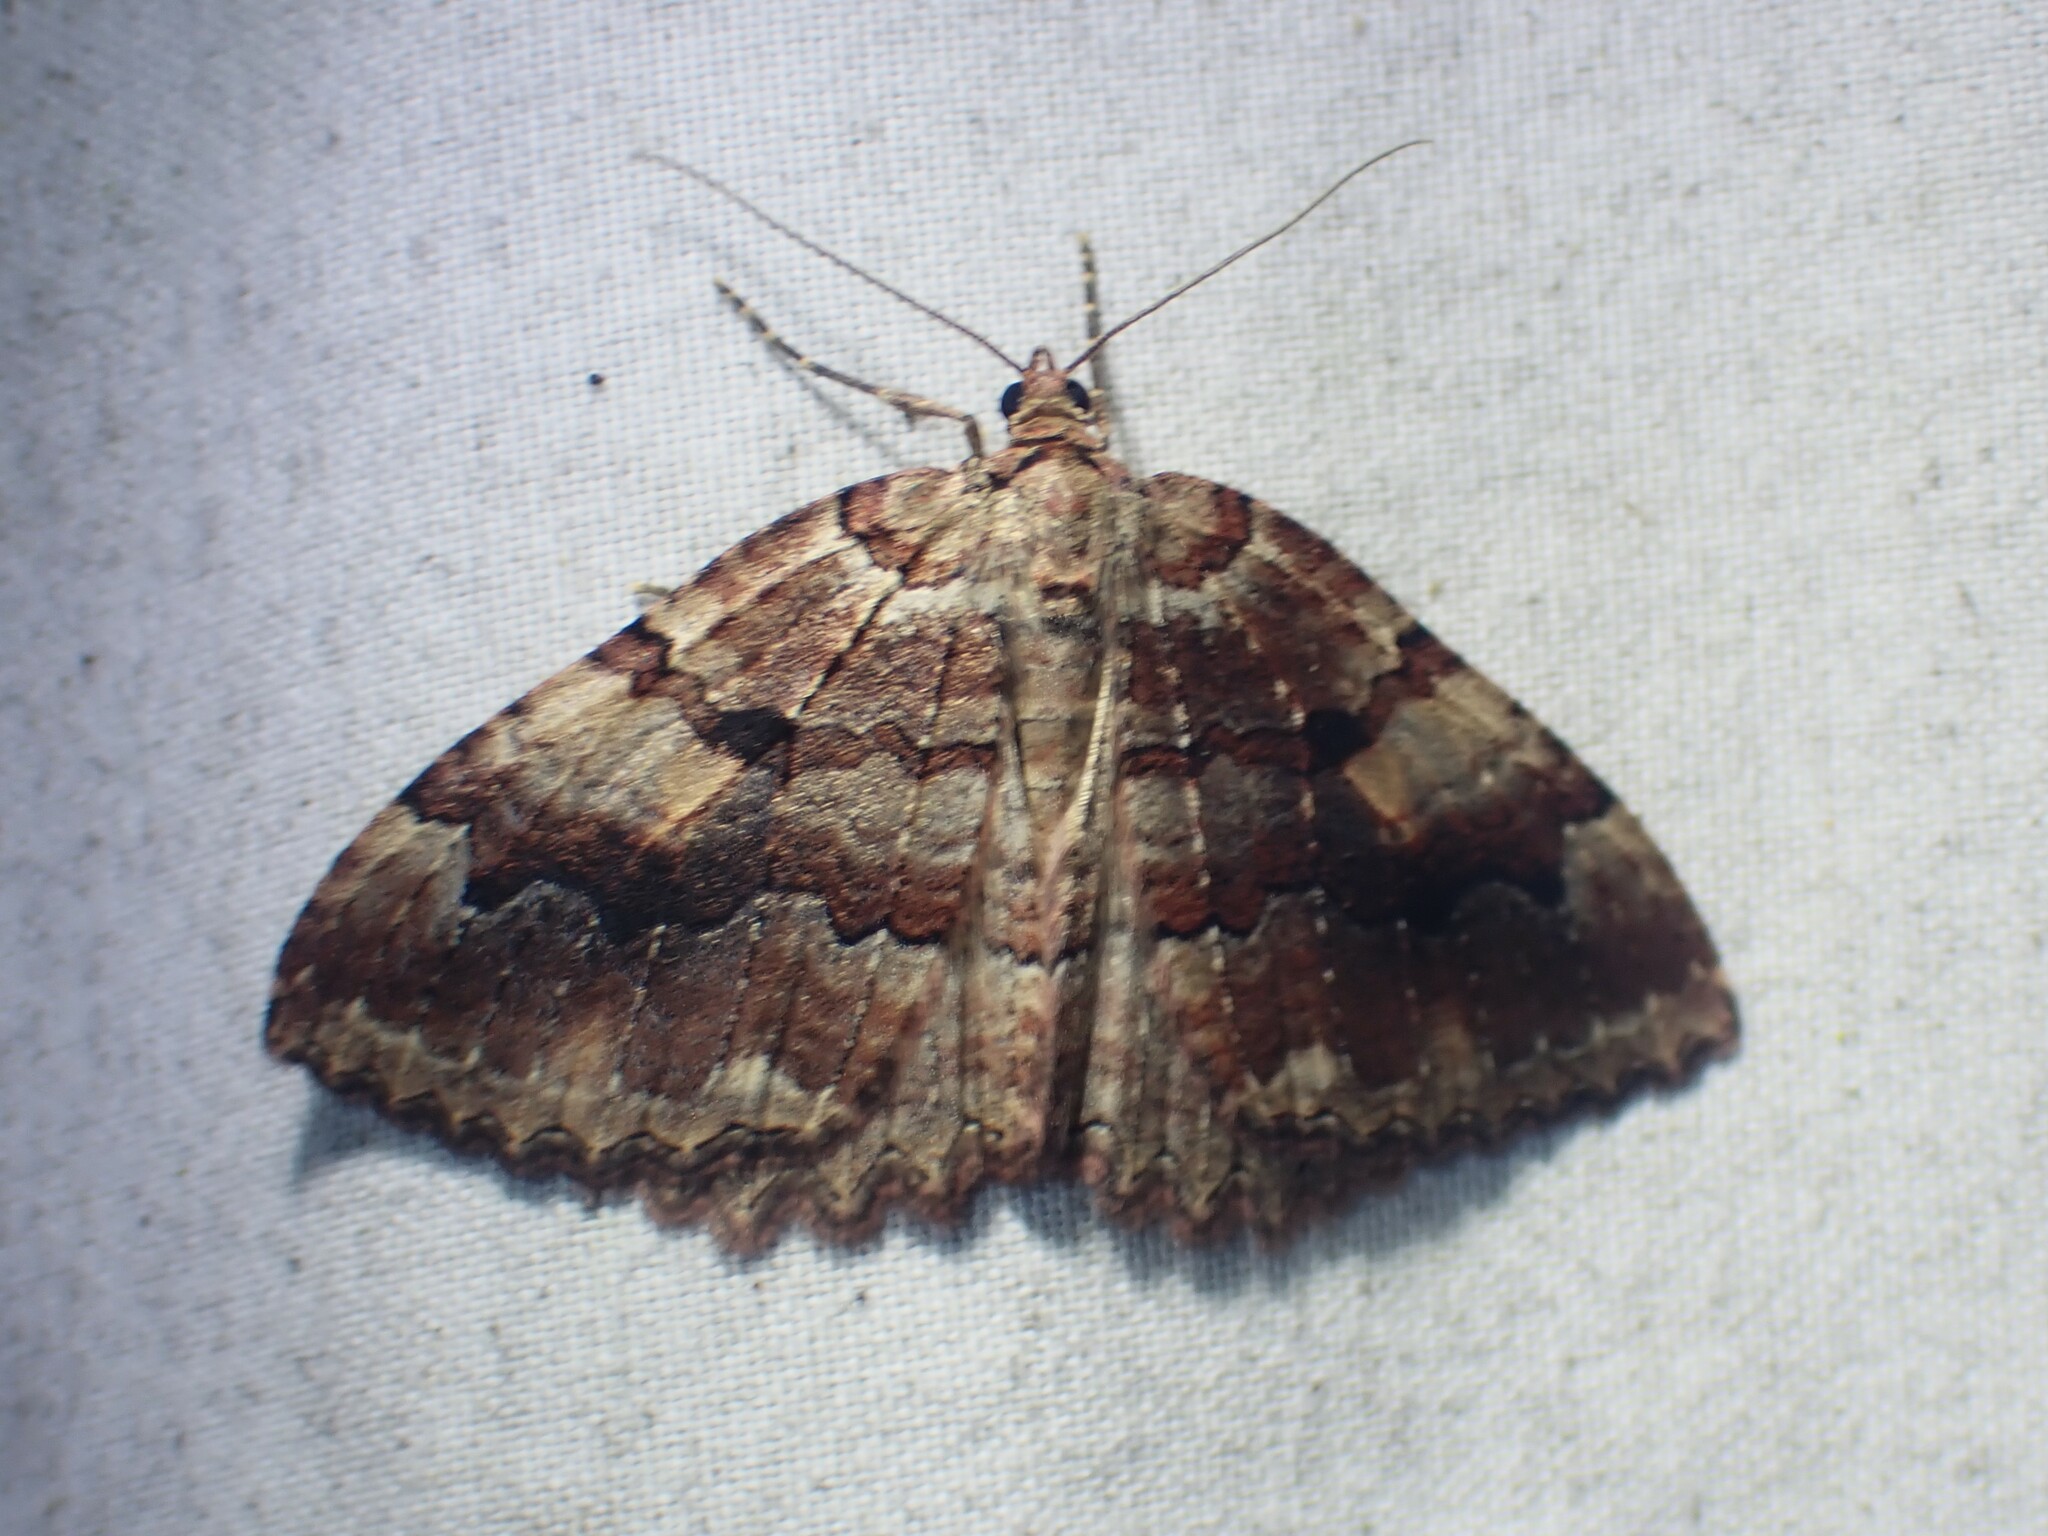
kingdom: Animalia
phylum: Arthropoda
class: Insecta
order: Lepidoptera
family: Geometridae
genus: Triphosa
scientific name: Triphosa haesitata
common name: Tissue moth
